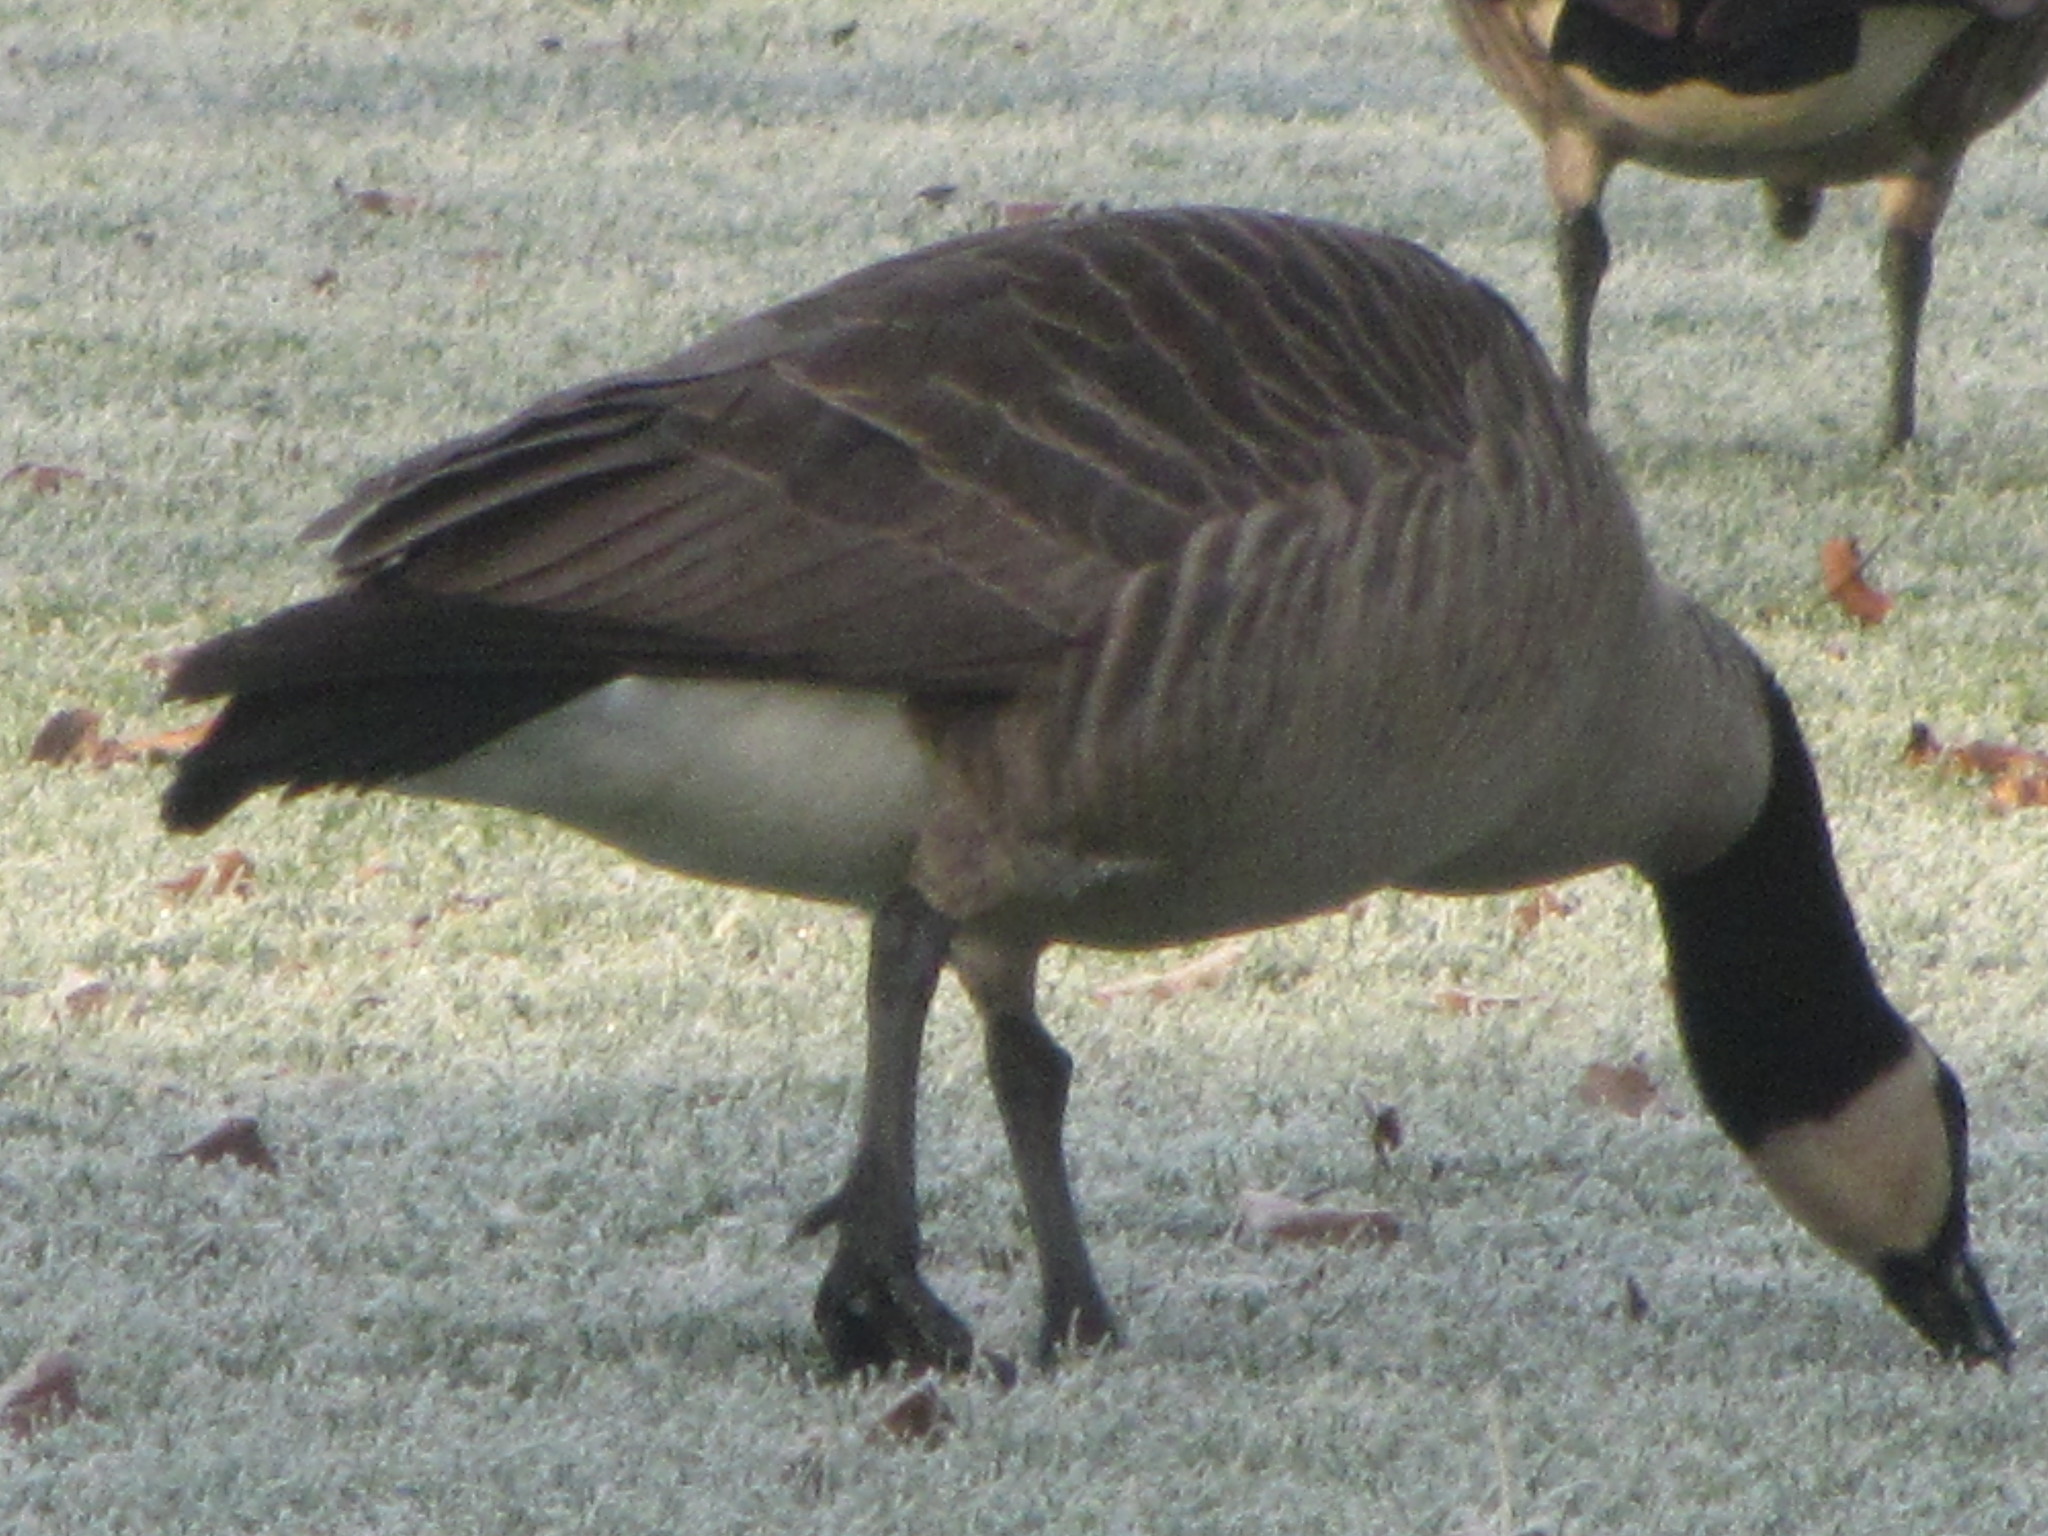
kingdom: Animalia
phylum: Chordata
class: Aves
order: Anseriformes
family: Anatidae
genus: Branta
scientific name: Branta canadensis
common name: Canada goose
